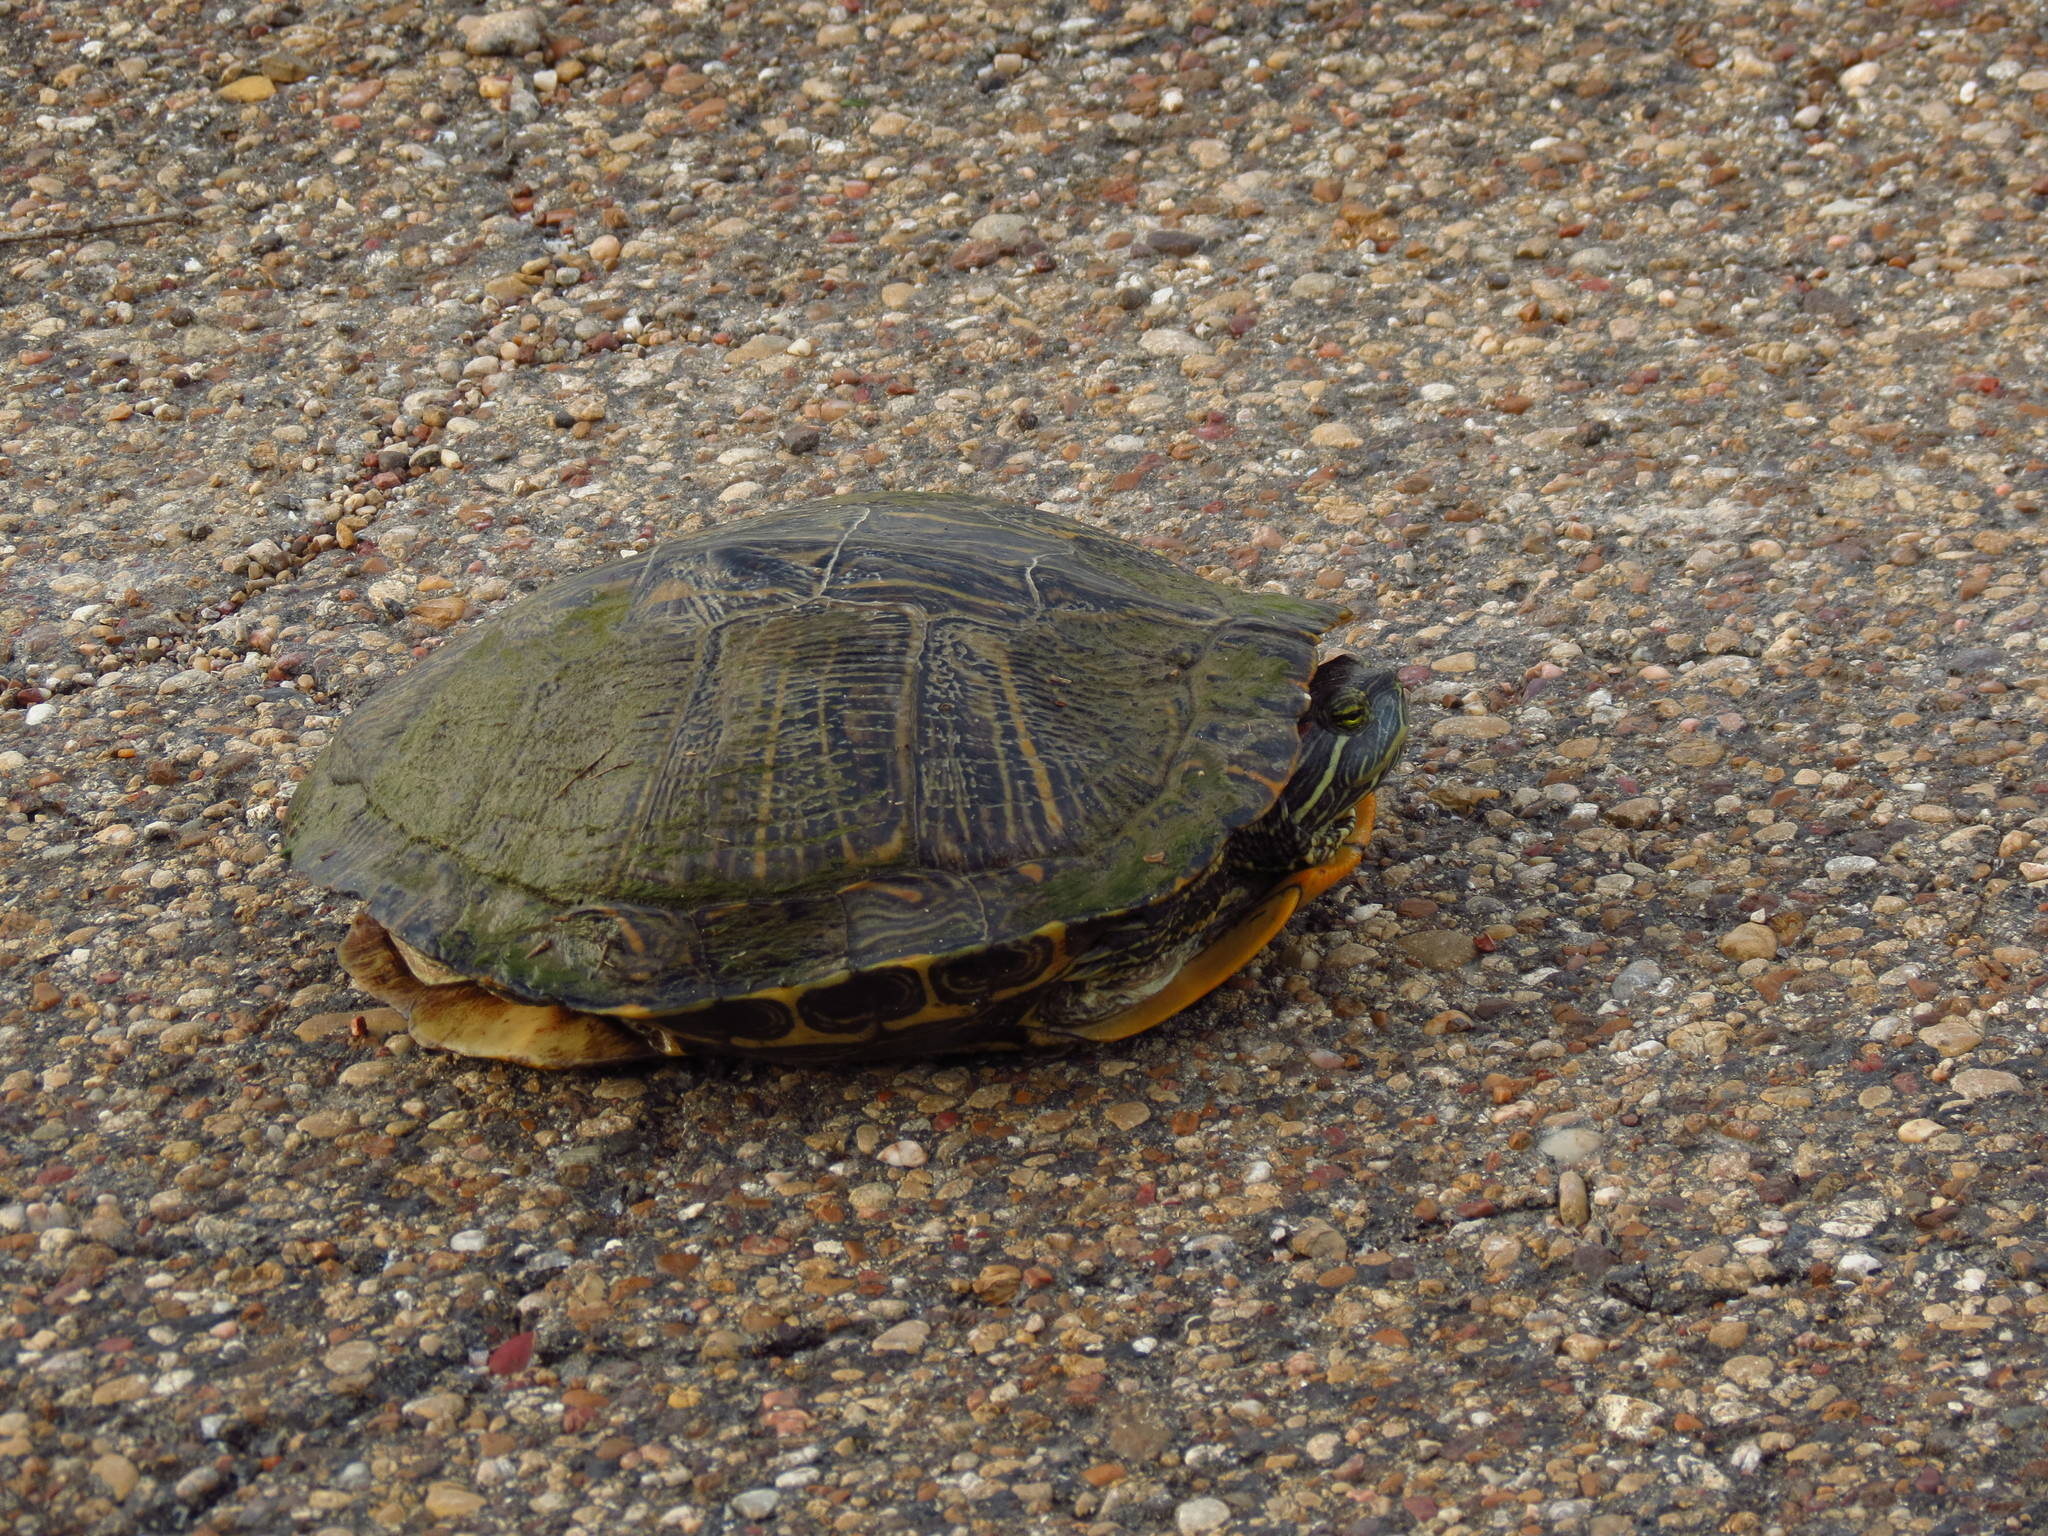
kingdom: Animalia
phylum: Chordata
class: Testudines
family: Emydidae
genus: Trachemys
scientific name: Trachemys scripta
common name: Slider
